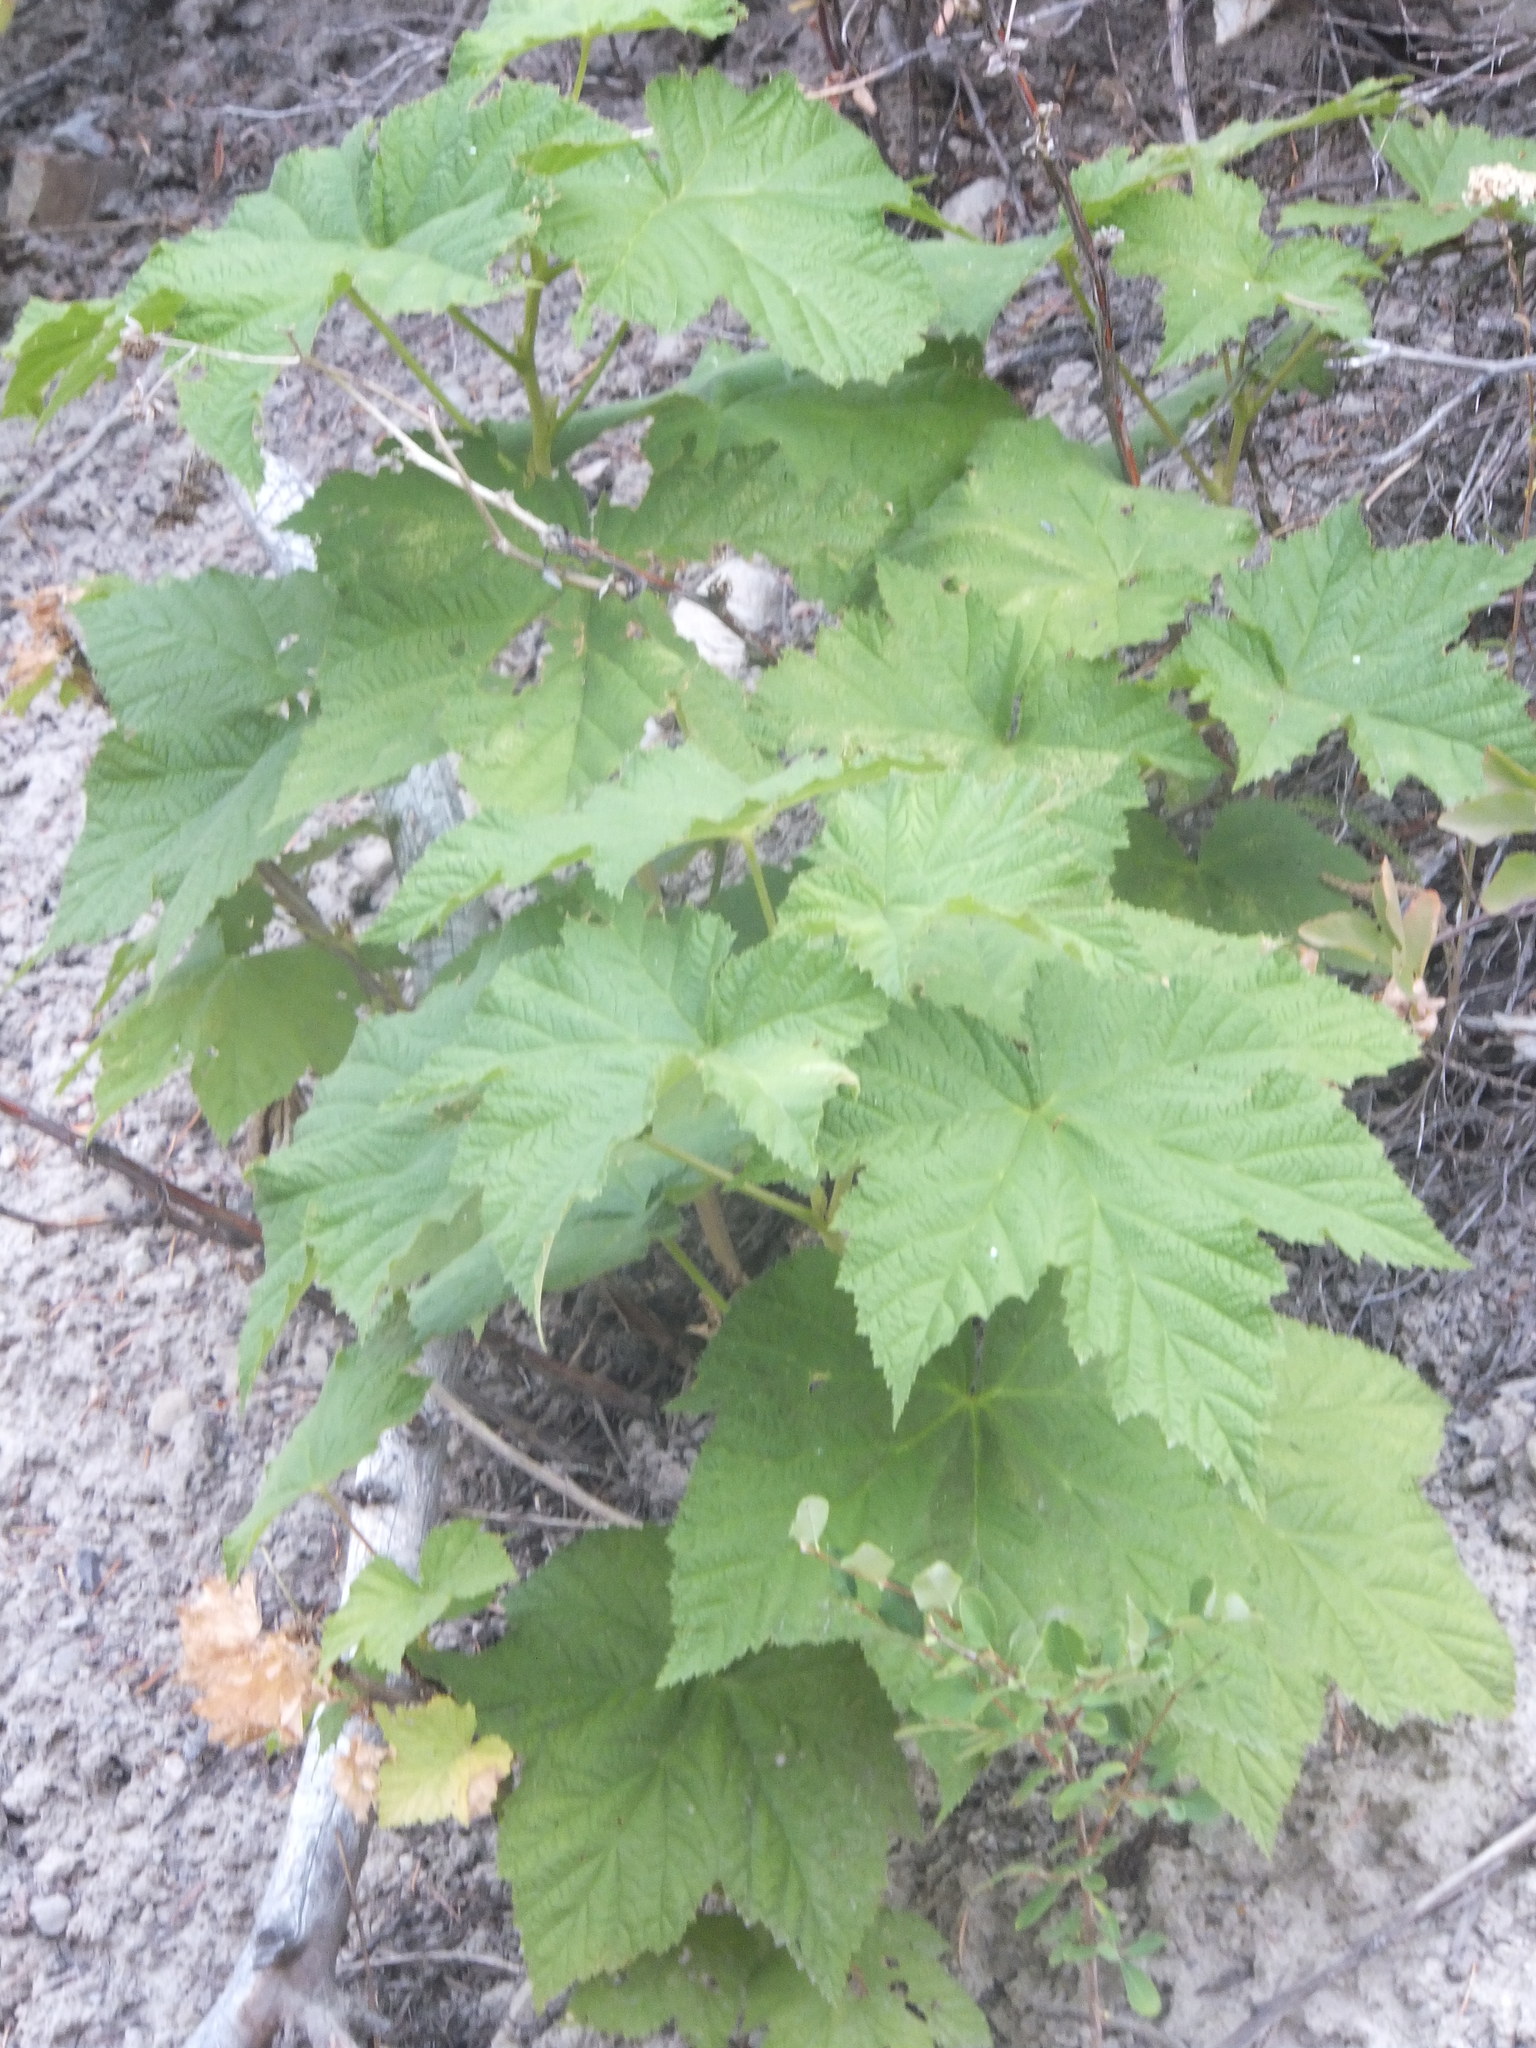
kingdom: Plantae
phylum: Tracheophyta
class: Magnoliopsida
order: Rosales
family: Rosaceae
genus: Rubus
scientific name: Rubus parviflorus
